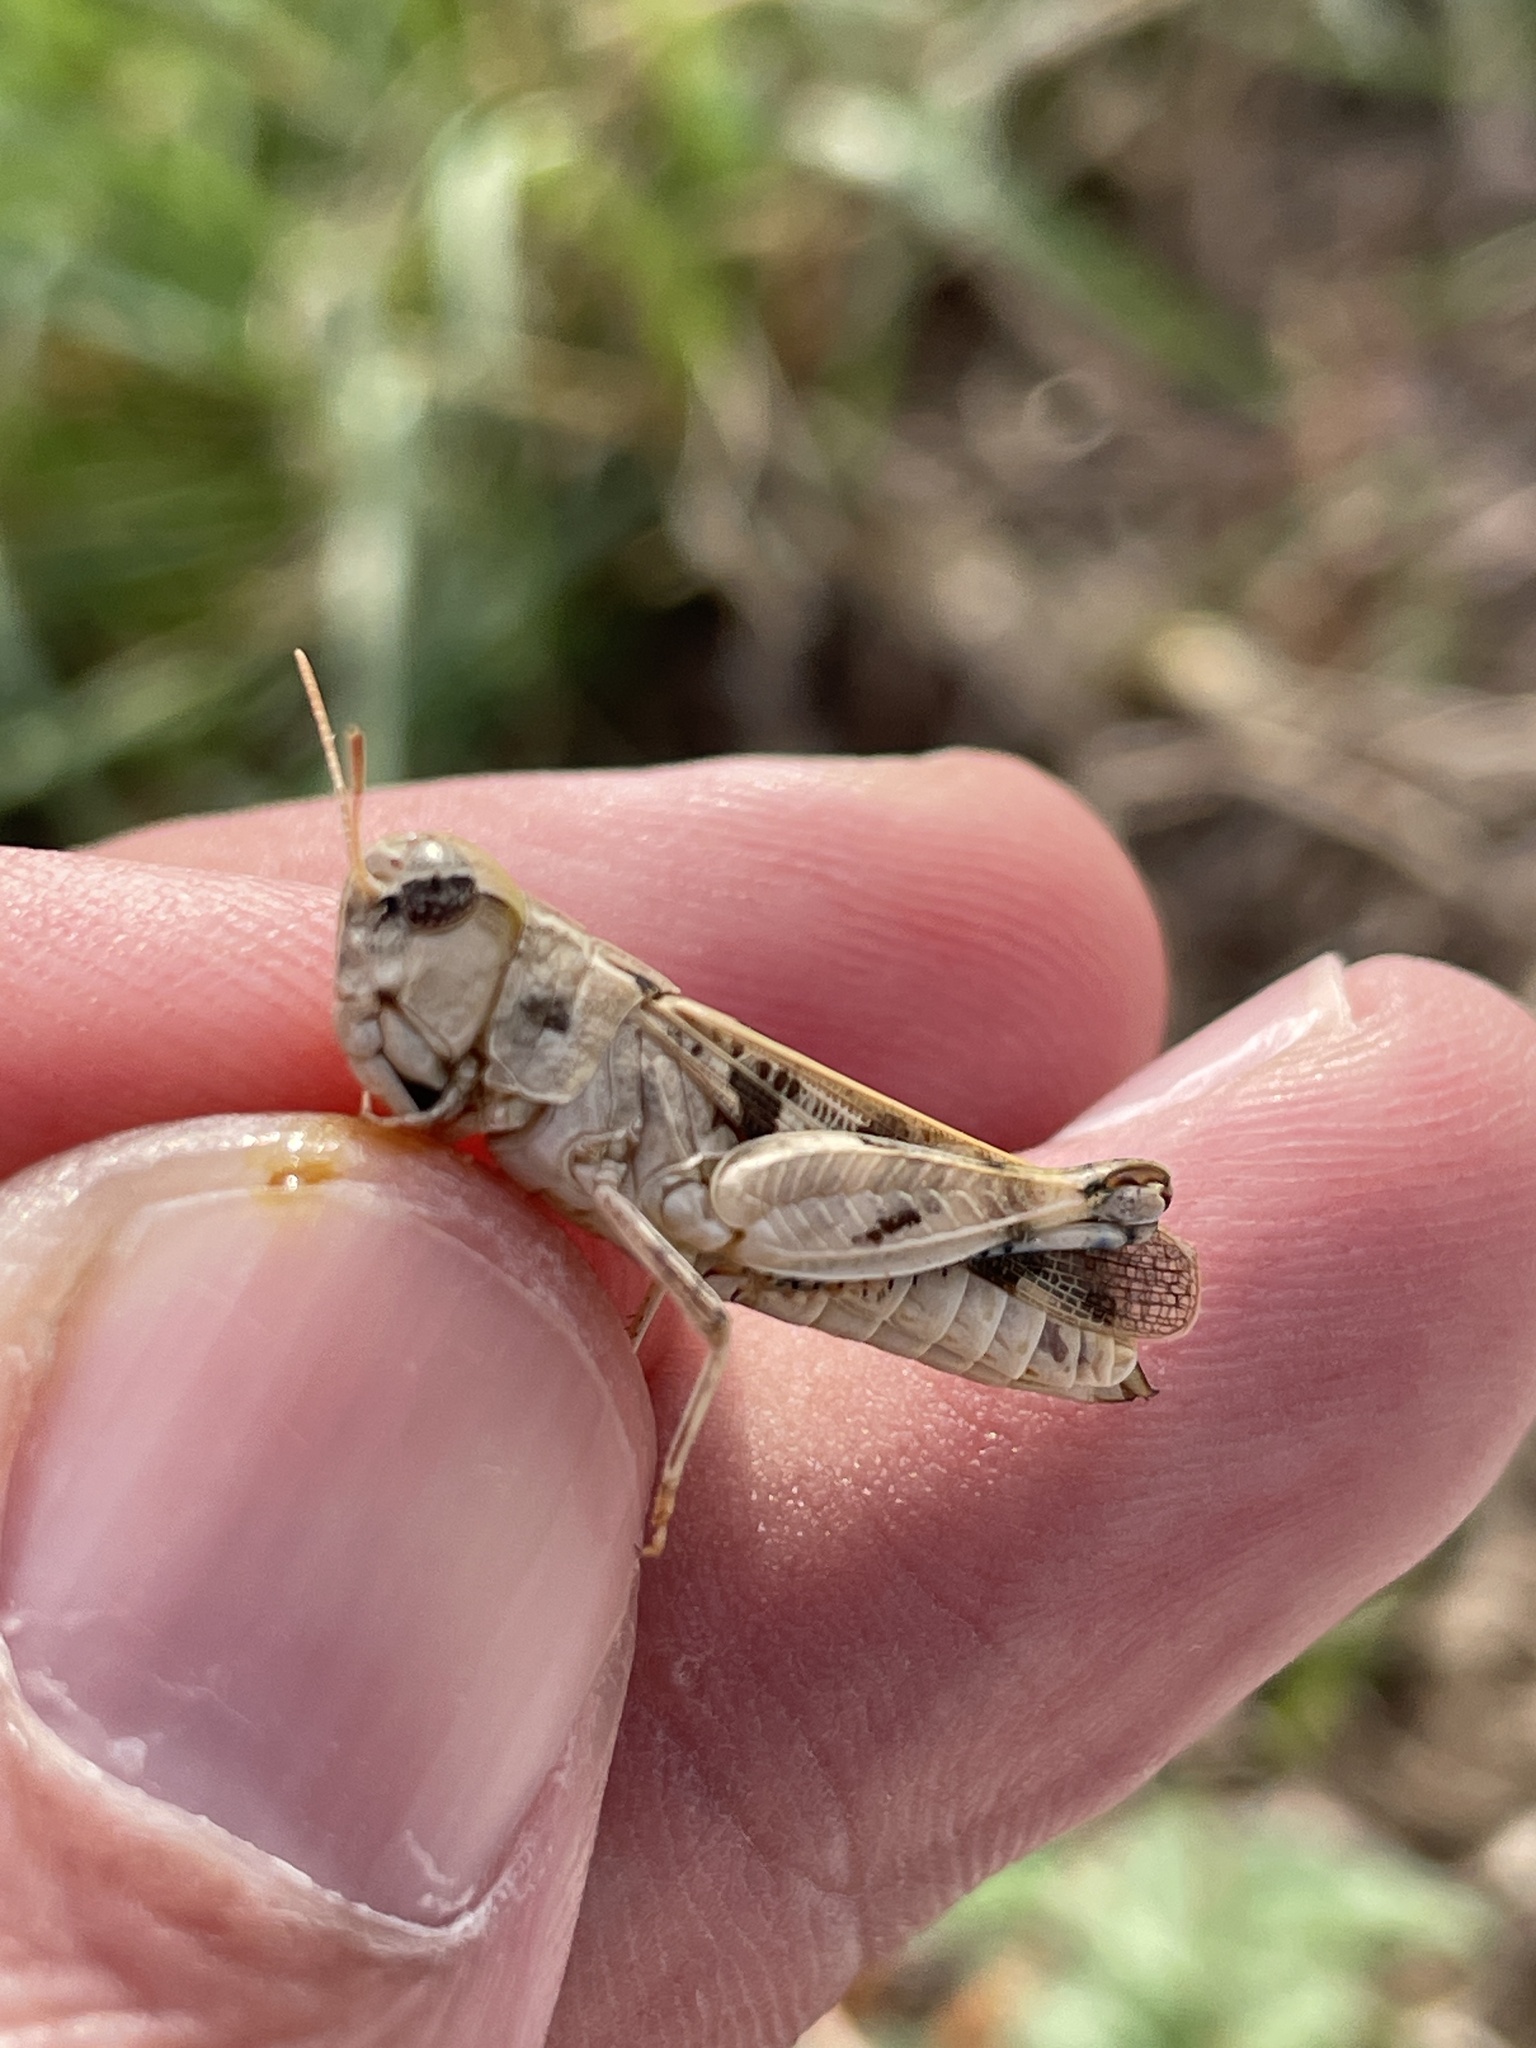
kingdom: Animalia
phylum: Arthropoda
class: Insecta
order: Orthoptera
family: Acrididae
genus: Encoptolophus
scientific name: Encoptolophus costalis
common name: Dusky grasshopper
